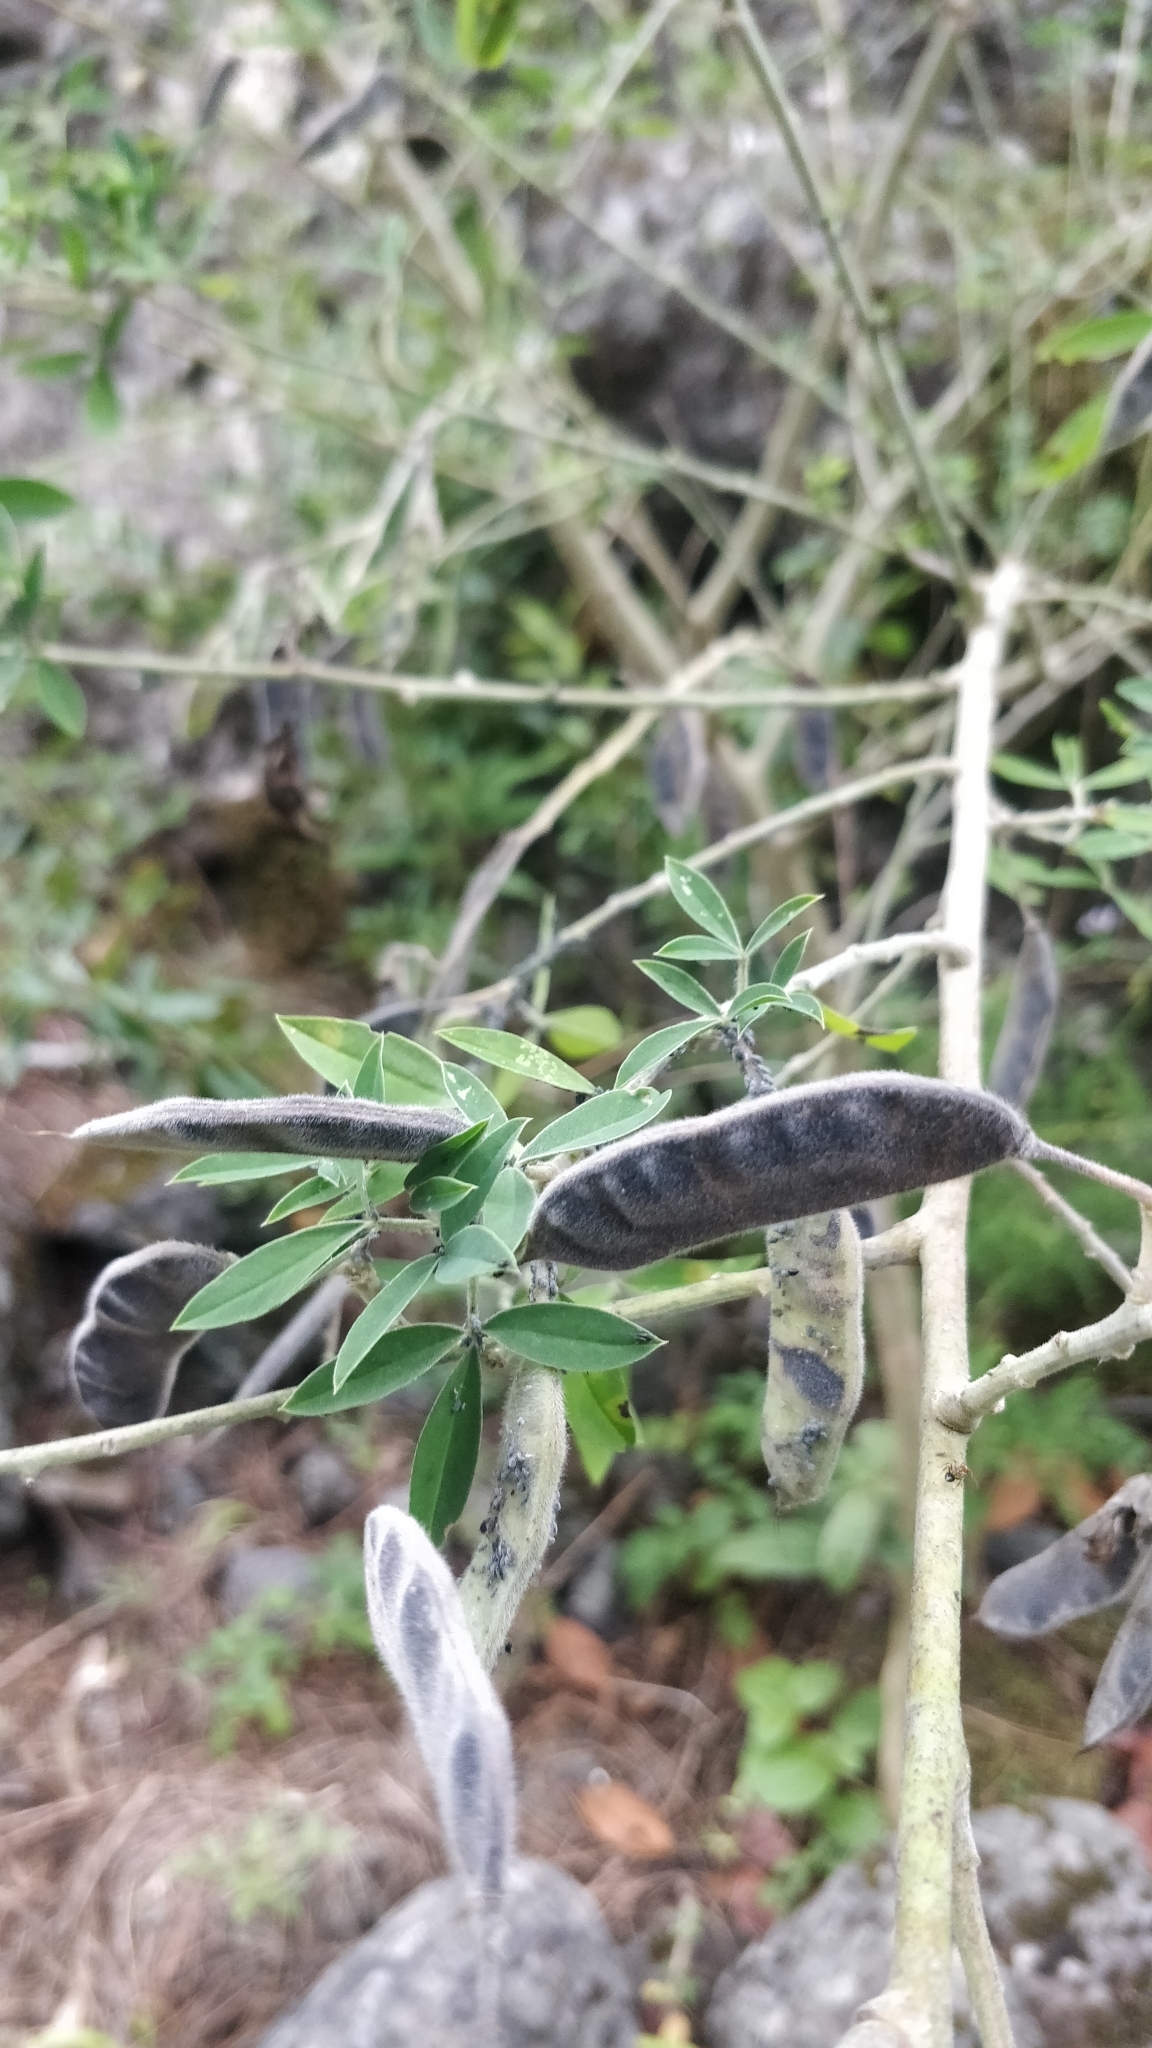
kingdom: Plantae
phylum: Tracheophyta
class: Magnoliopsida
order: Fabales
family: Fabaceae
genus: Chamaecytisus
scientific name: Chamaecytisus prolifer
